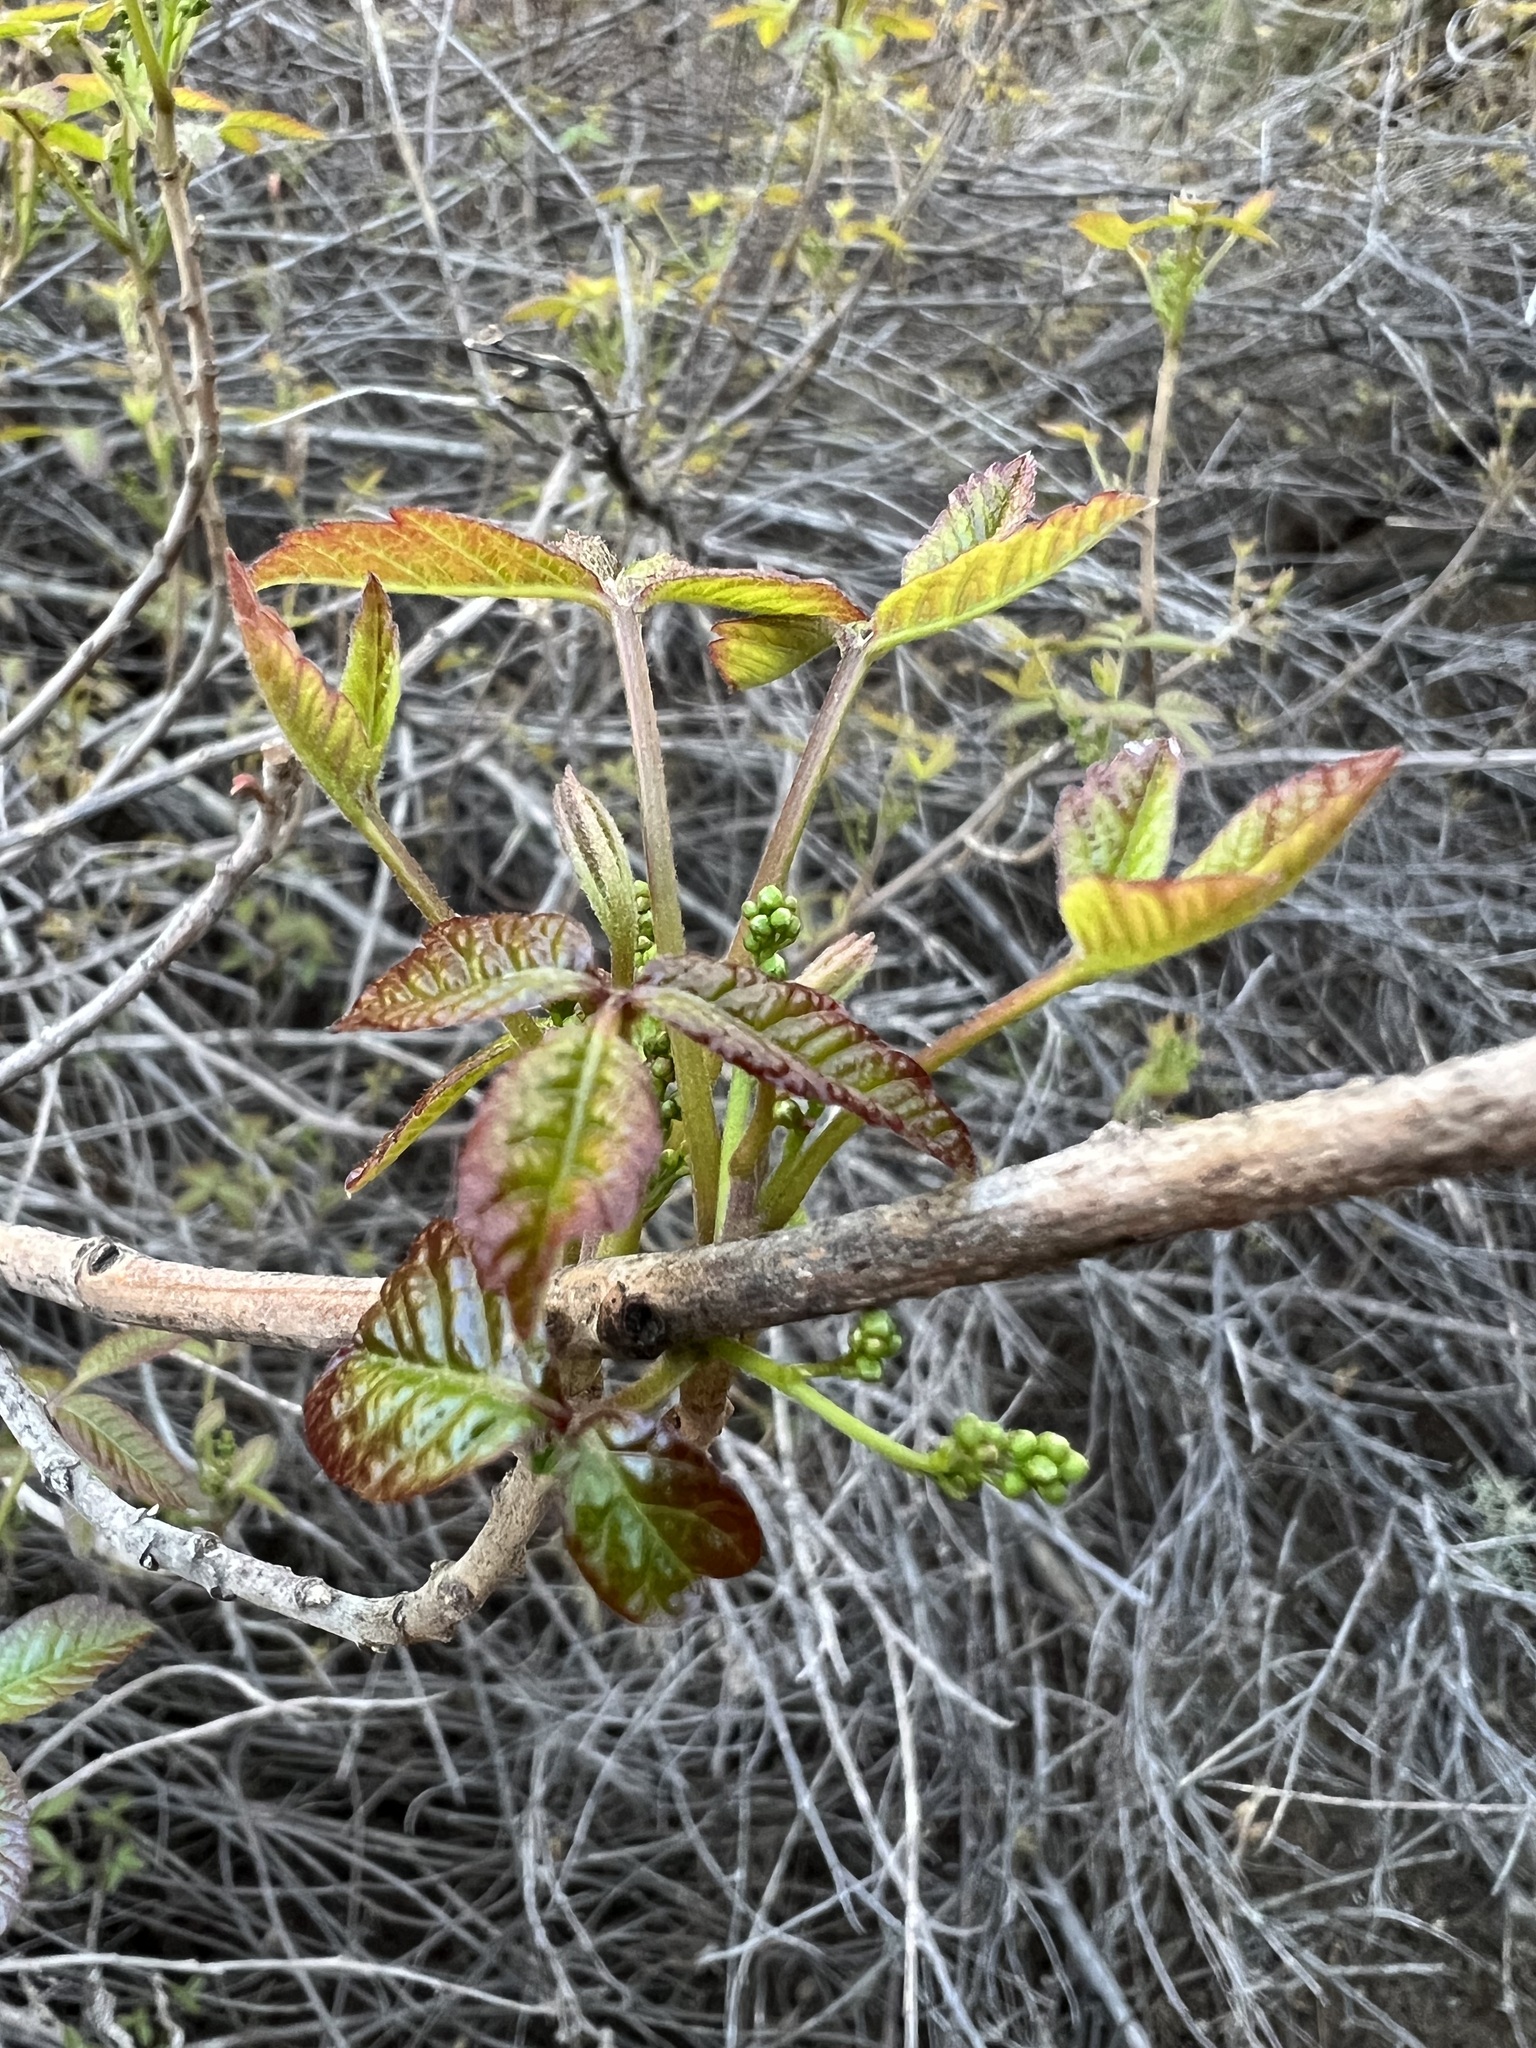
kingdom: Plantae
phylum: Tracheophyta
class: Magnoliopsida
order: Sapindales
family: Anacardiaceae
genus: Toxicodendron
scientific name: Toxicodendron diversilobum
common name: Pacific poison-oak
